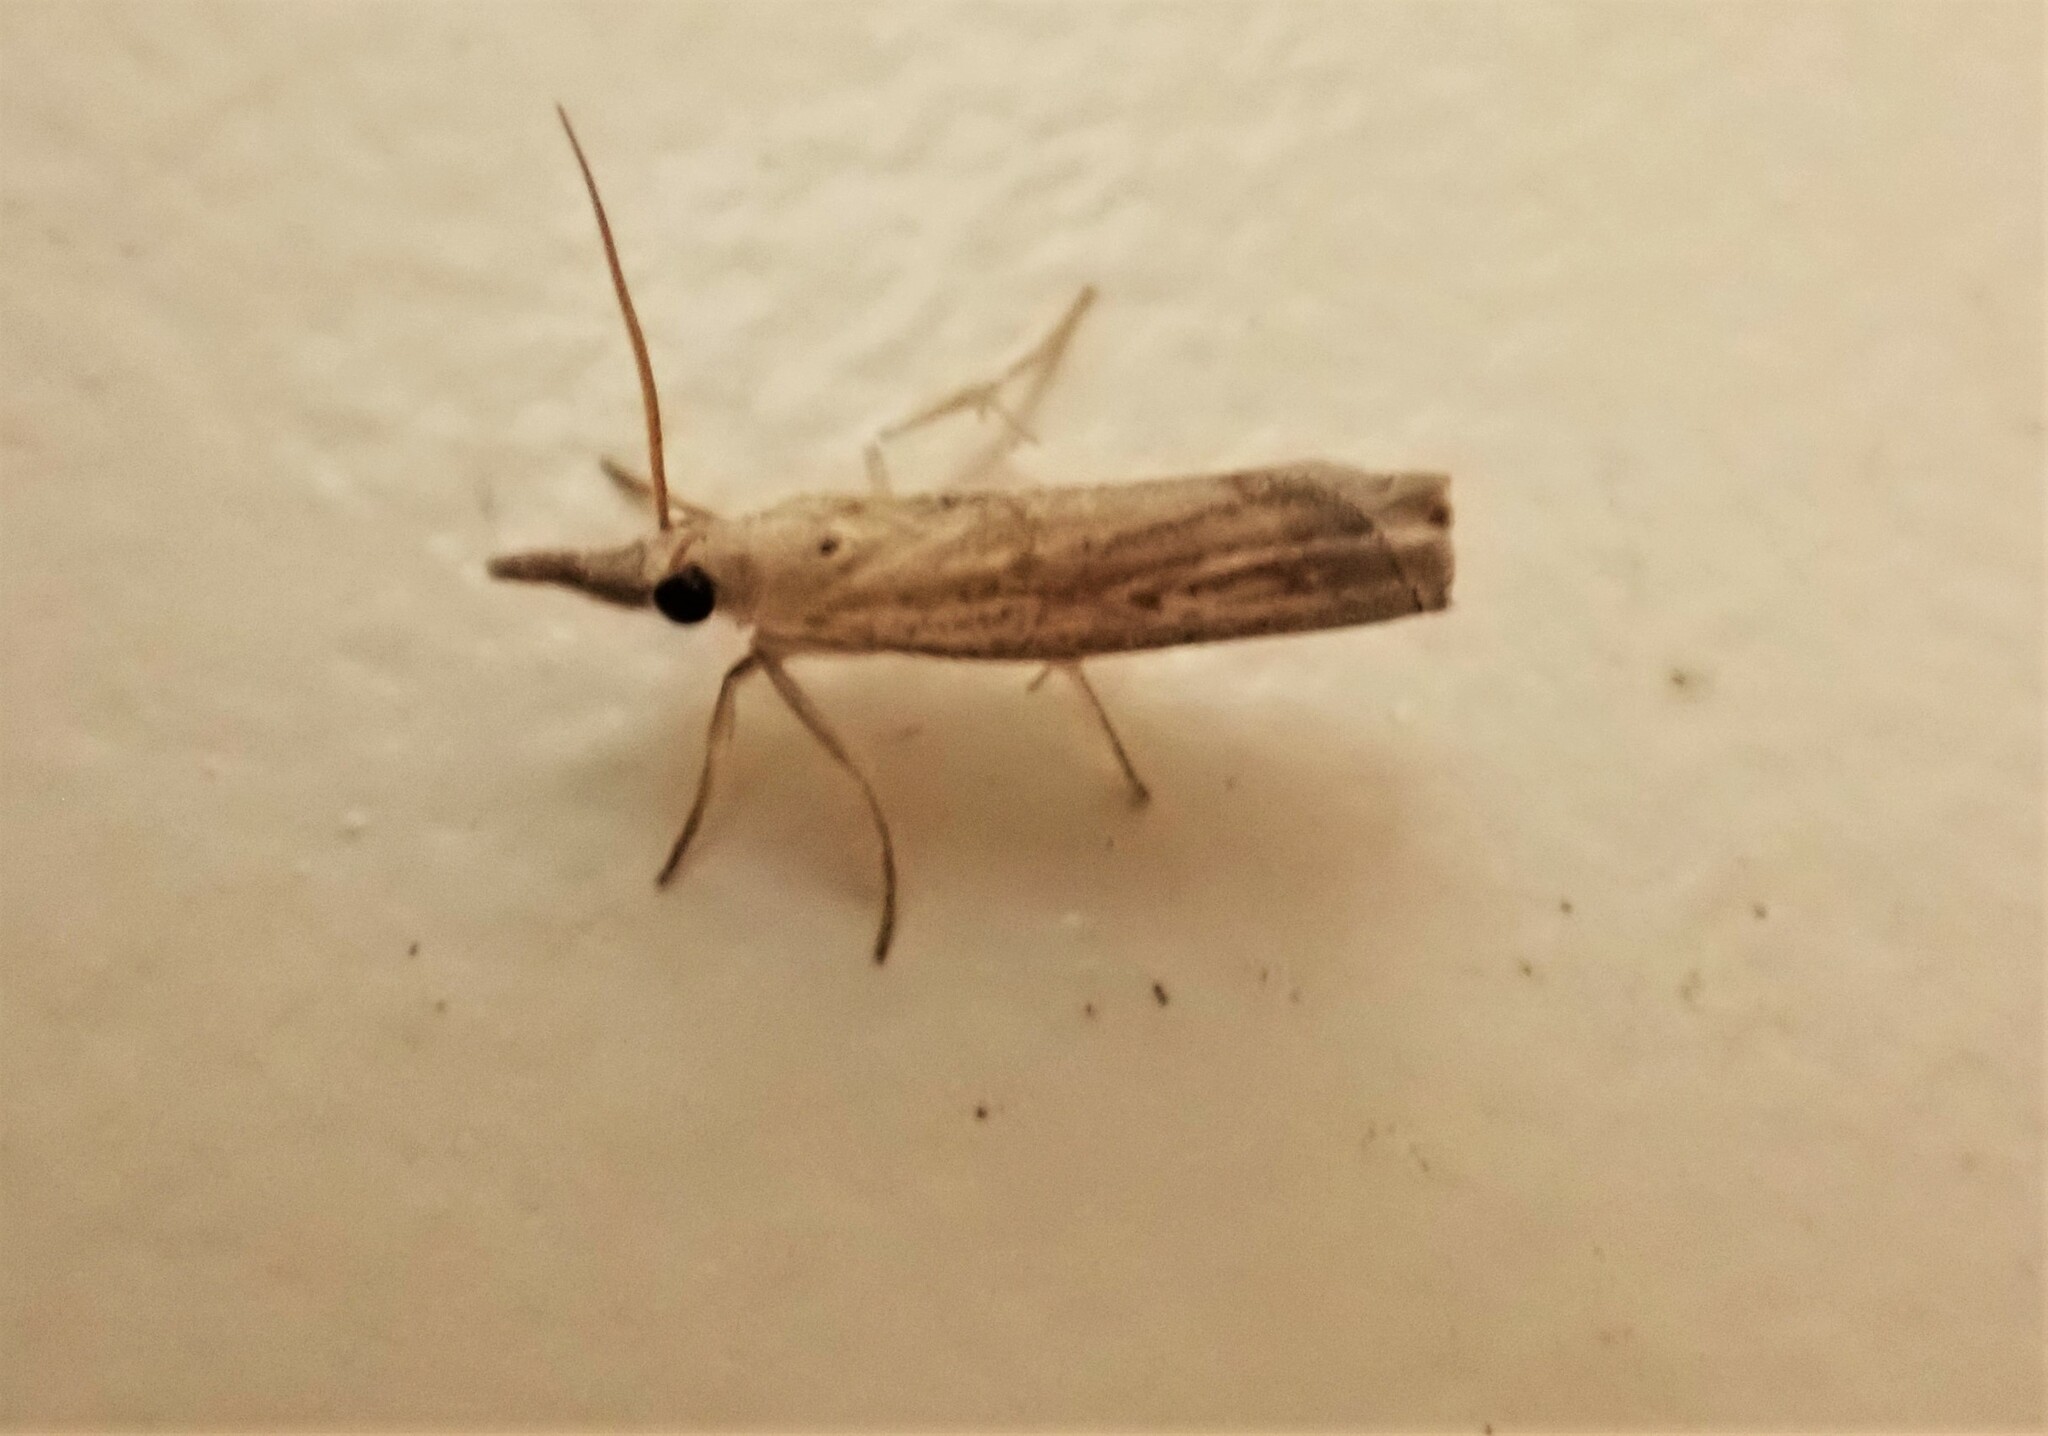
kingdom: Animalia
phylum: Arthropoda
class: Insecta
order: Lepidoptera
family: Crambidae
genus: Culladia
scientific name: Culladia cuneiferellus
